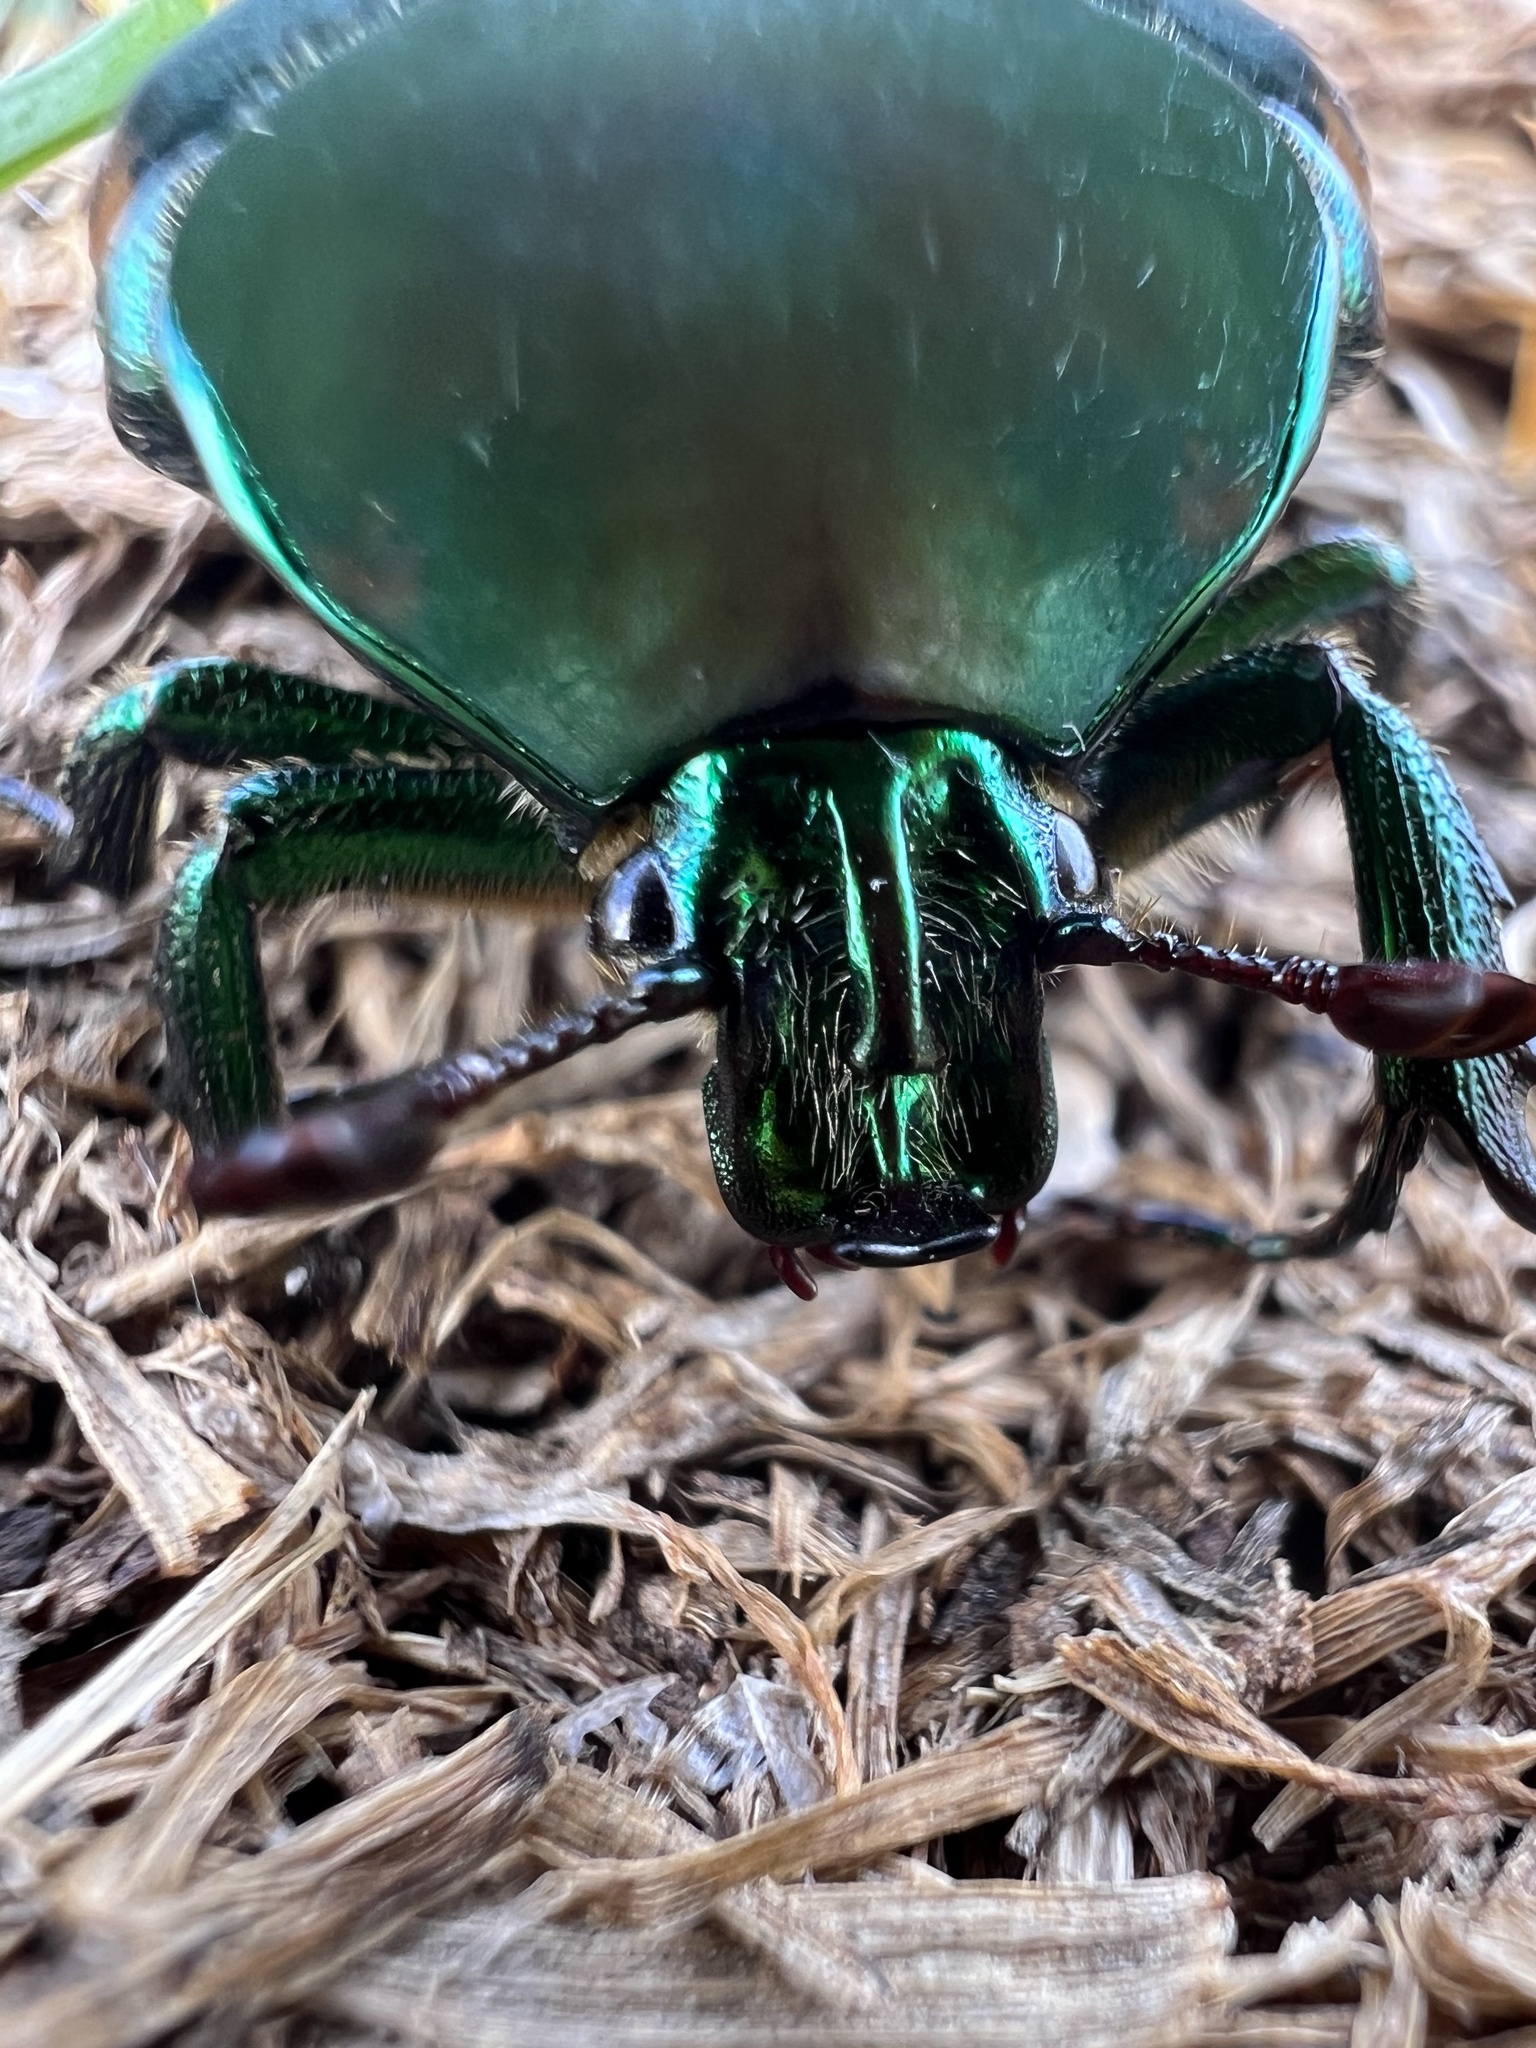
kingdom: Animalia
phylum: Arthropoda
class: Insecta
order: Coleoptera
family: Scarabaeidae
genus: Cotinis
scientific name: Cotinis mutabilis
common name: Figeater beetle
